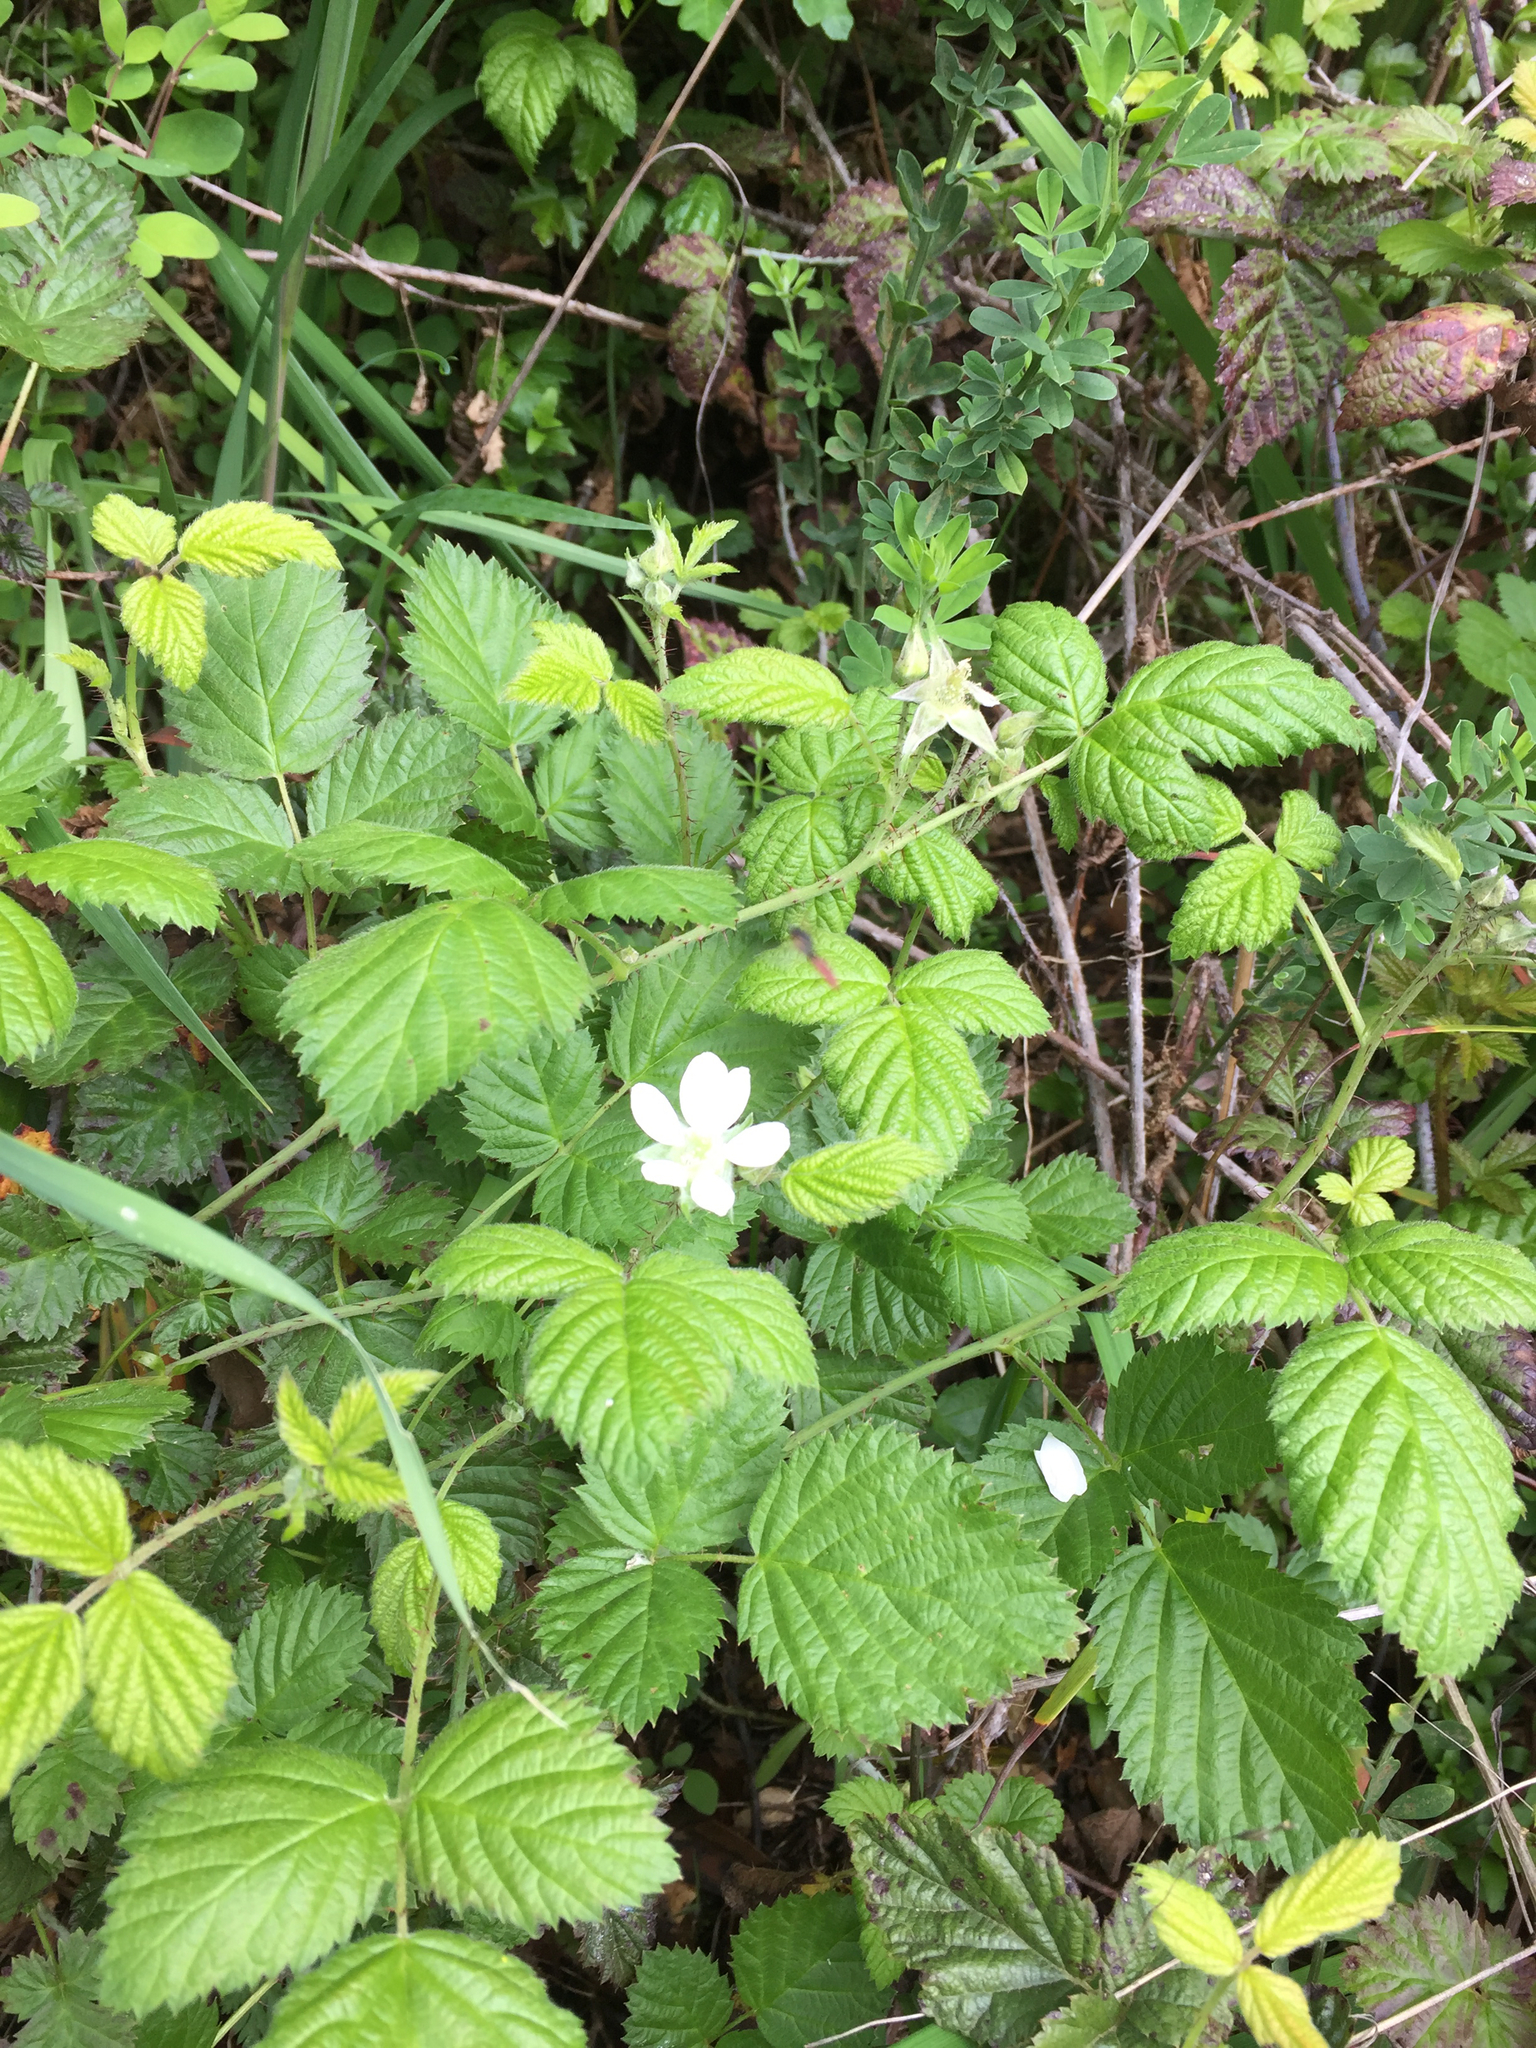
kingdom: Plantae
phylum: Tracheophyta
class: Magnoliopsida
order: Rosales
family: Rosaceae
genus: Rubus
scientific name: Rubus ursinus
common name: Pacific blackberry
